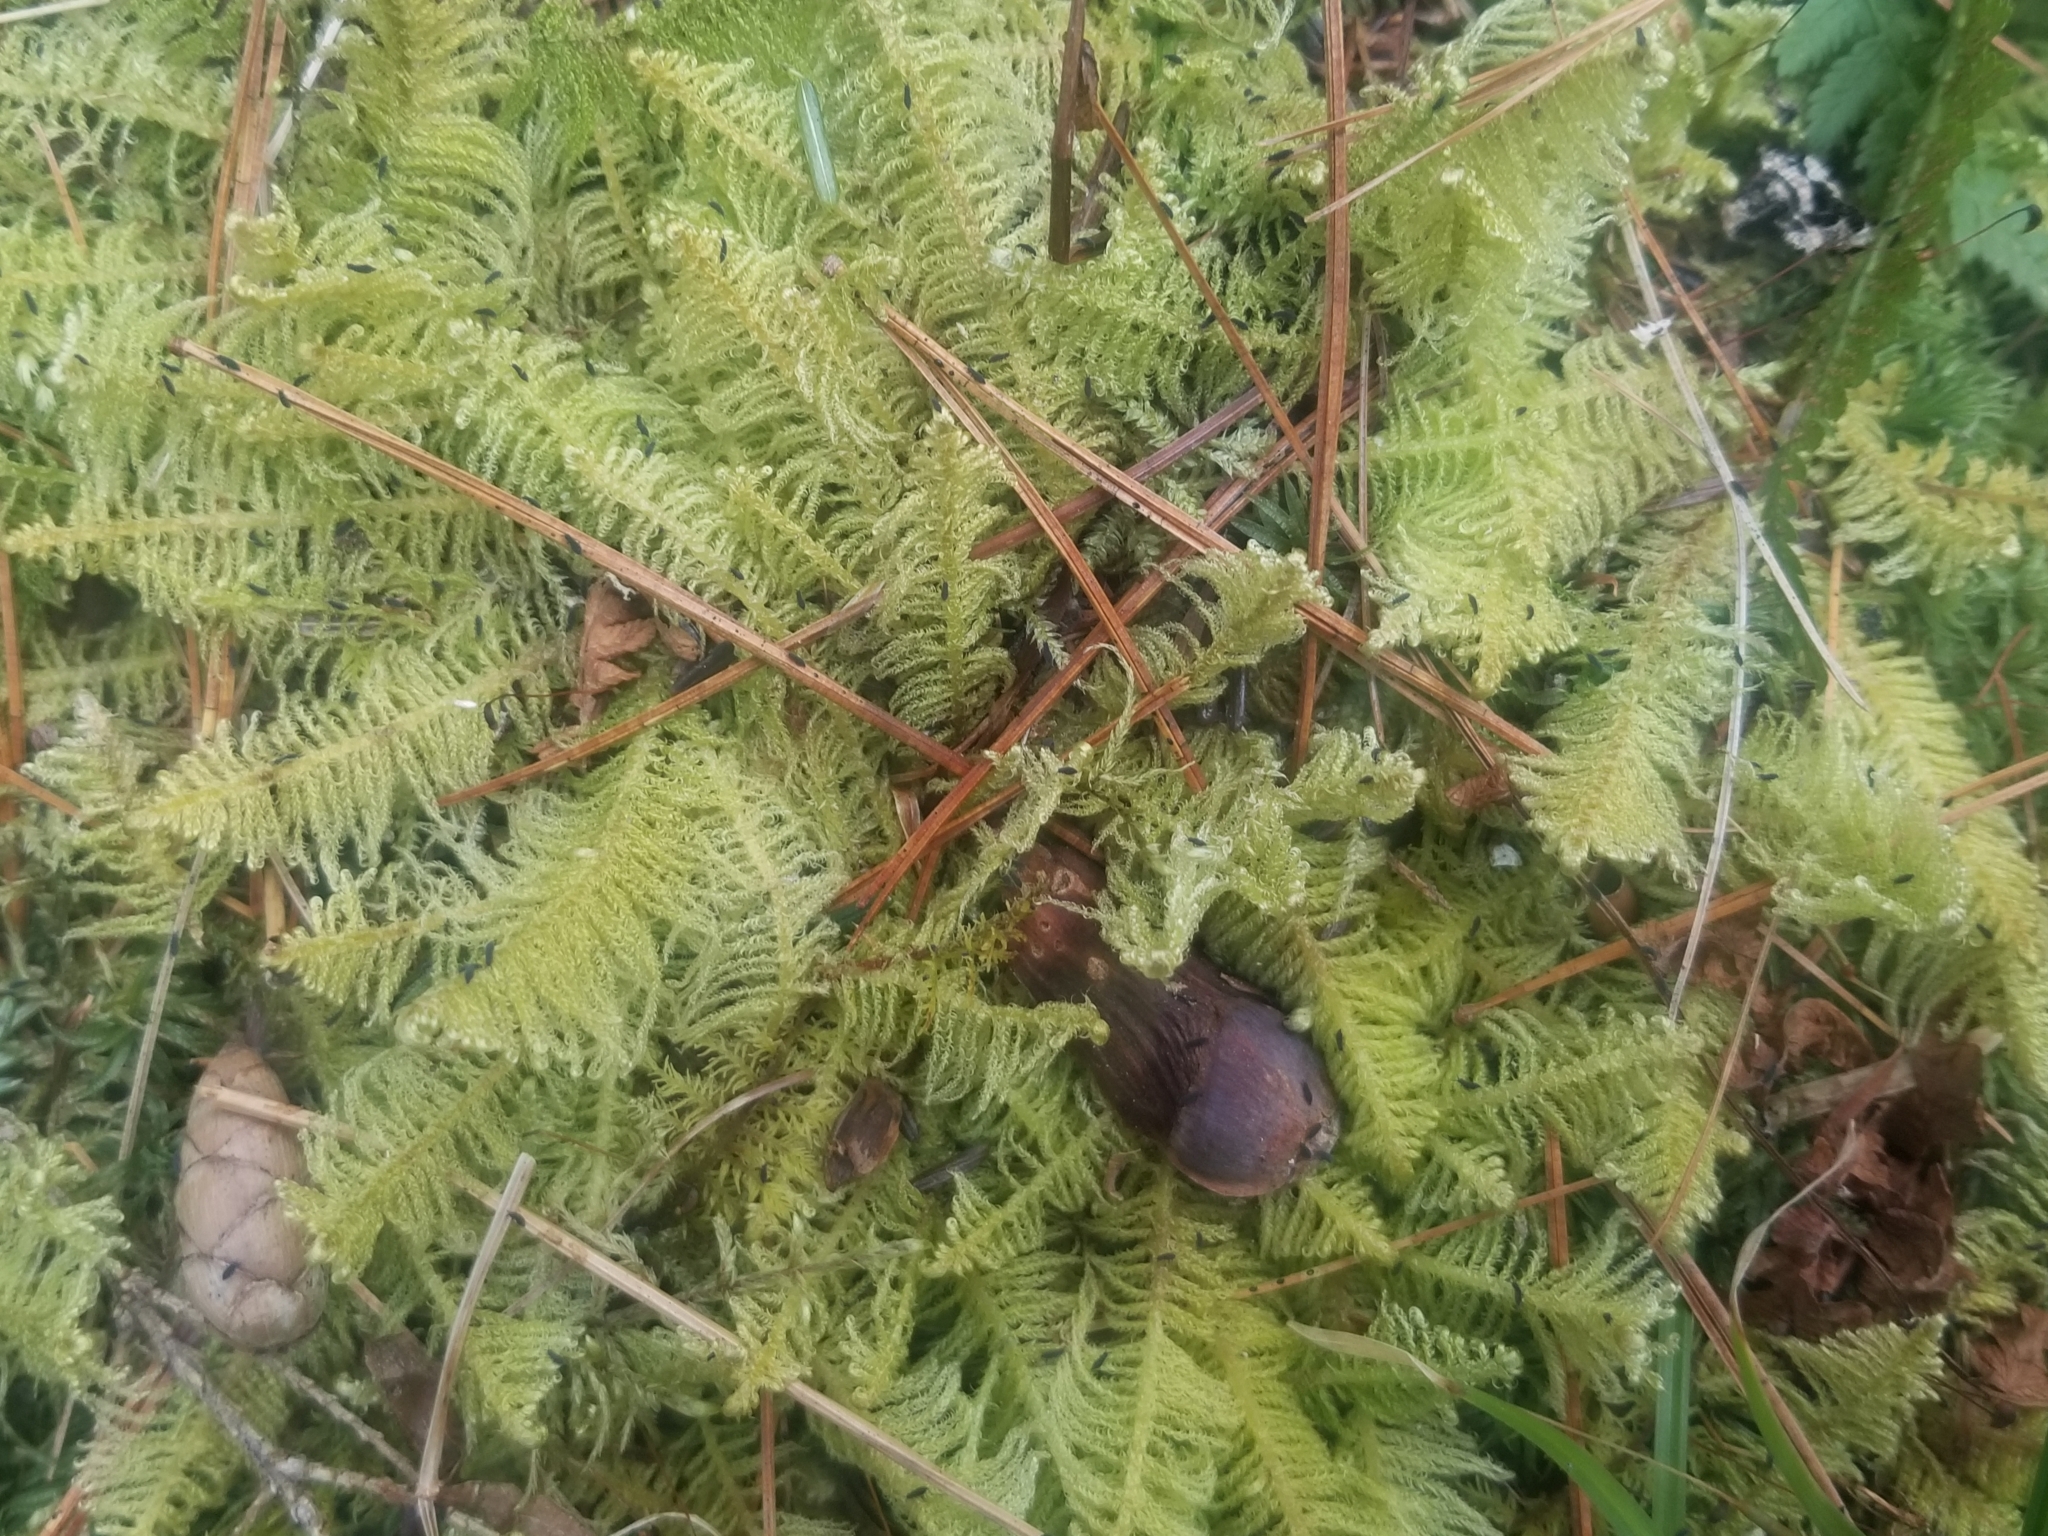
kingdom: Plantae
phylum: Bryophyta
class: Bryopsida
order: Hypnales
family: Pylaisiaceae
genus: Ptilium
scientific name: Ptilium crista-castrensis
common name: Knight's plume moss
